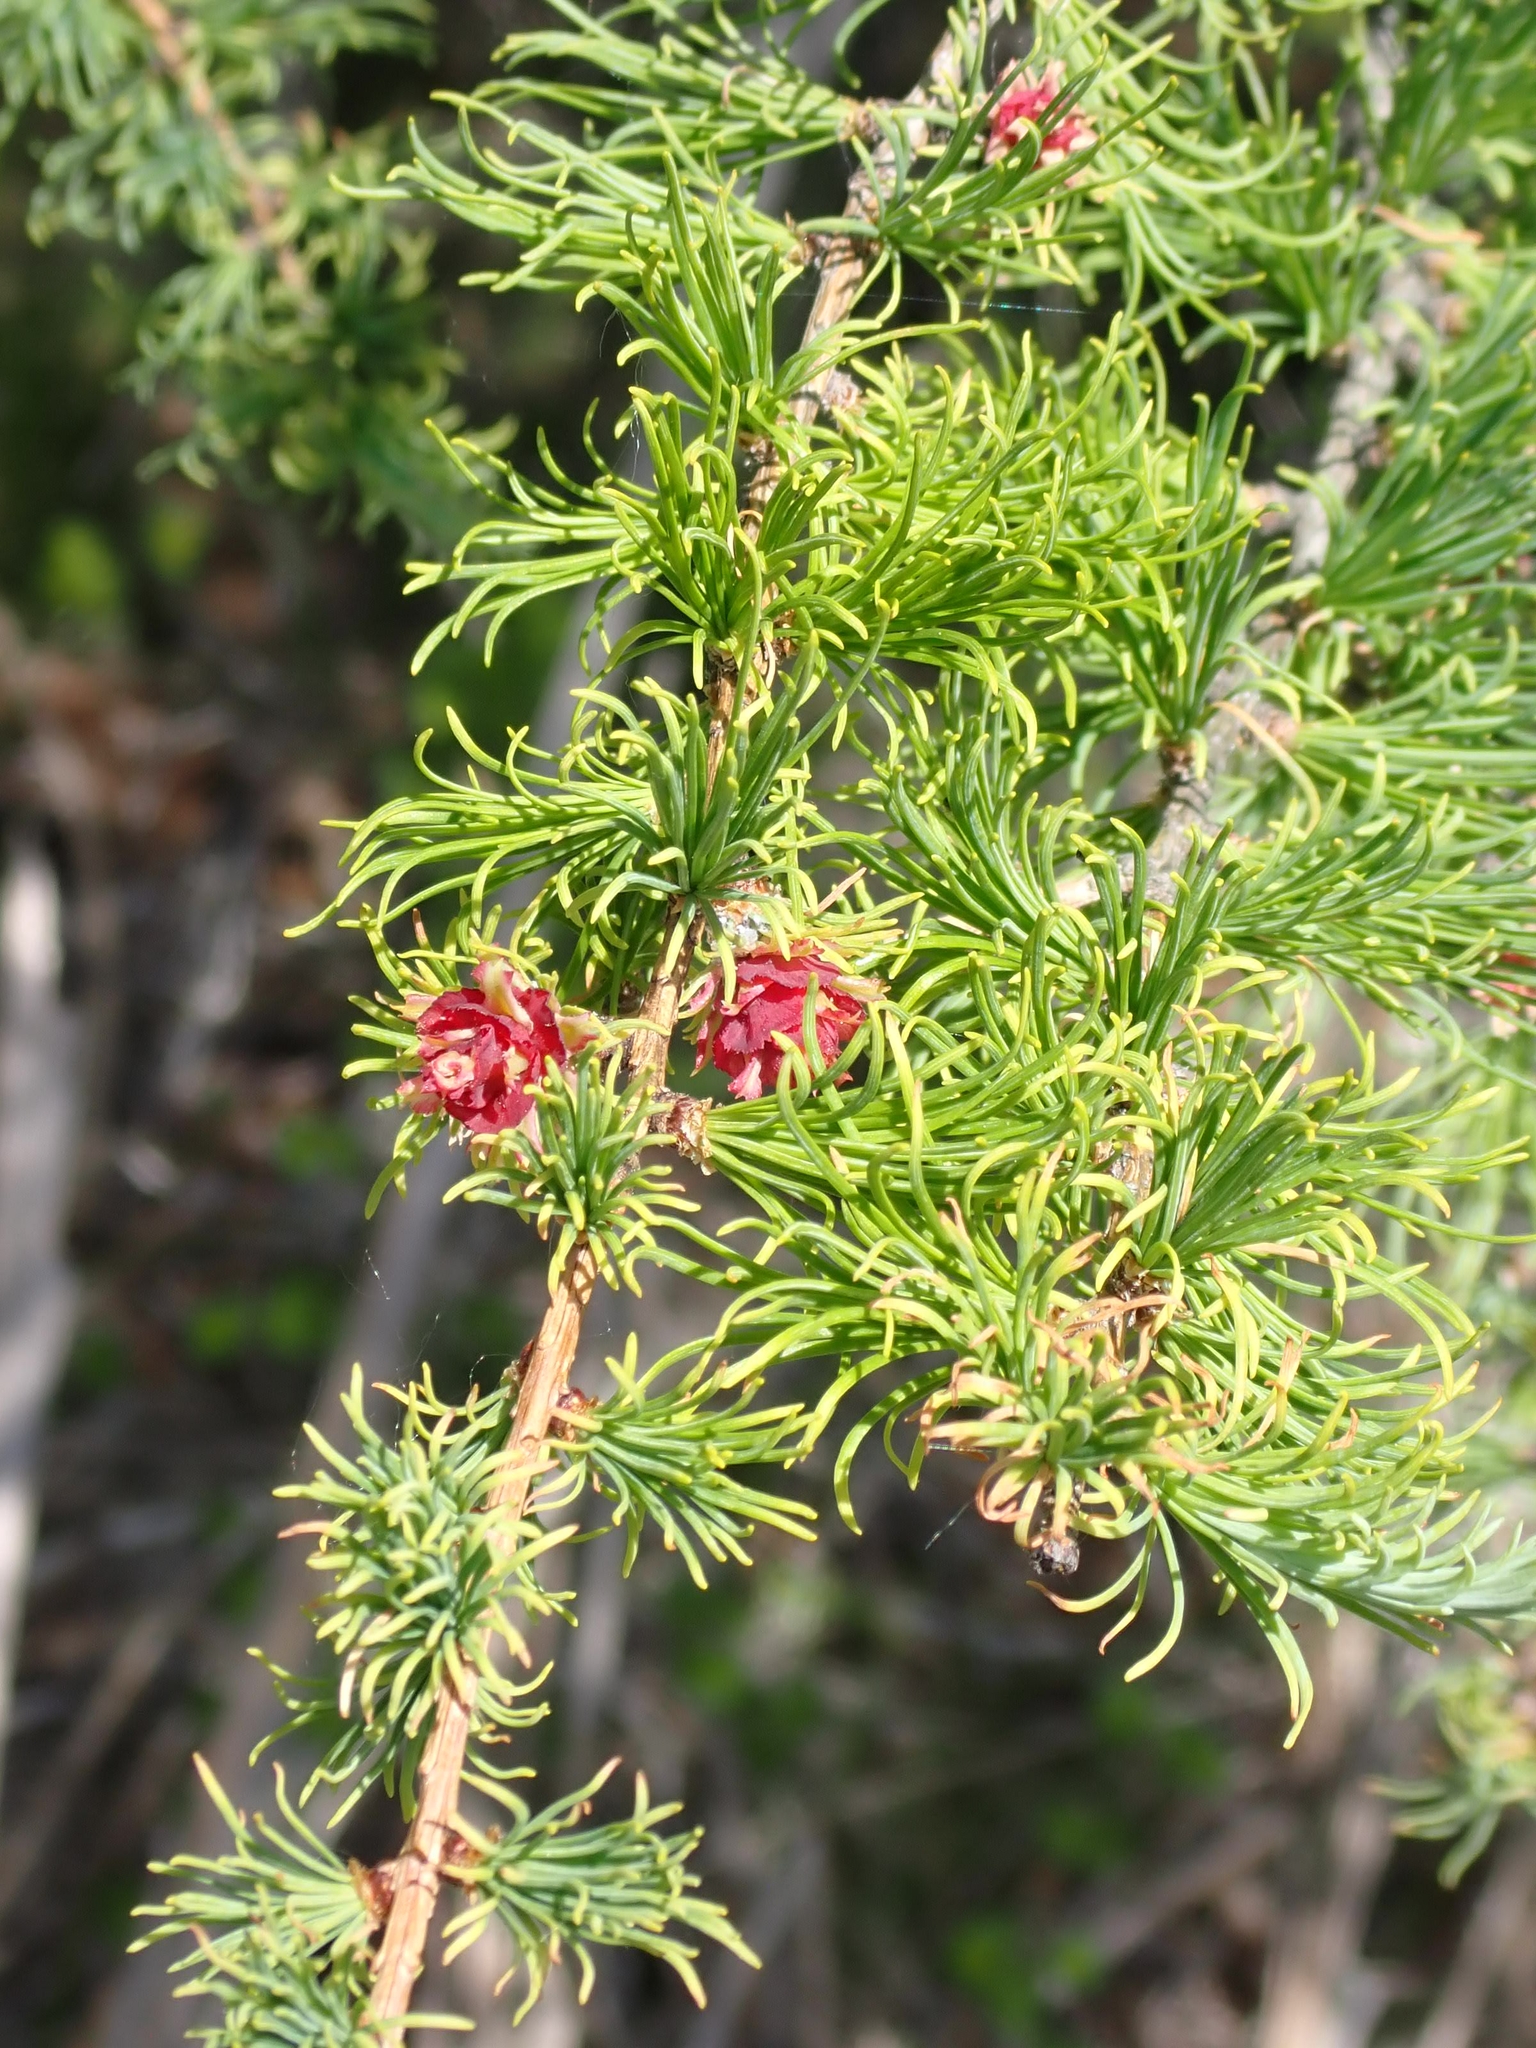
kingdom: Plantae
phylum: Tracheophyta
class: Pinopsida
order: Pinales
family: Pinaceae
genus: Larix
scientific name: Larix laricina
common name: American larch
